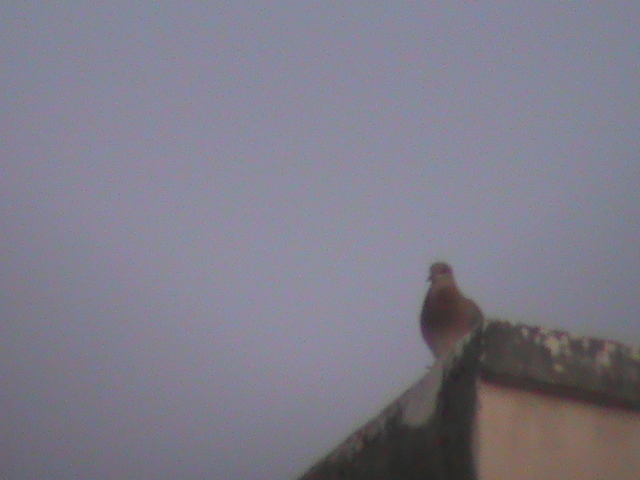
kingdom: Animalia
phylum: Chordata
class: Aves
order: Columbiformes
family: Columbidae
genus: Spilopelia
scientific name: Spilopelia senegalensis
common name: Laughing dove
